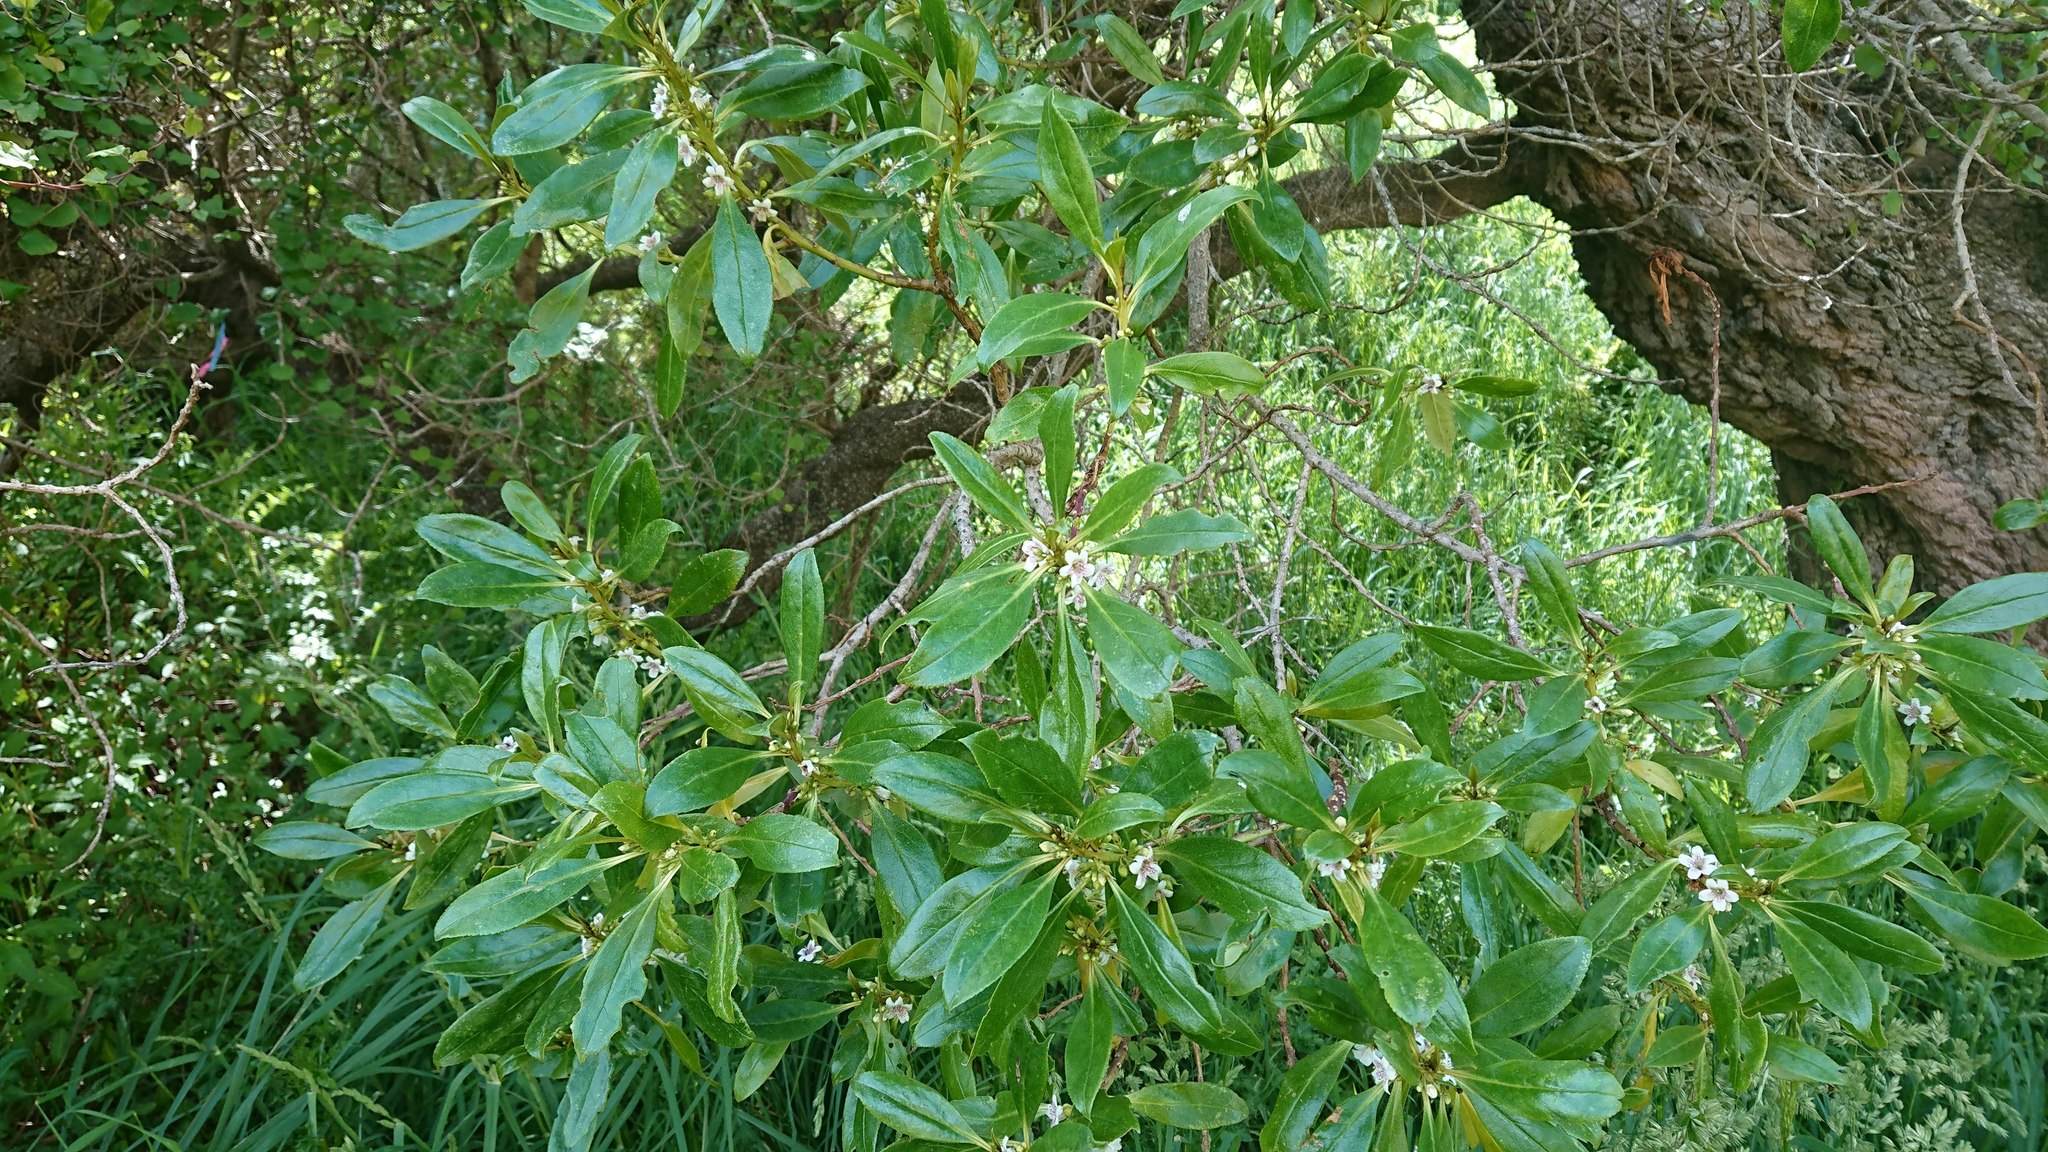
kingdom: Plantae
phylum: Tracheophyta
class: Magnoliopsida
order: Lamiales
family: Scrophulariaceae
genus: Myoporum
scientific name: Myoporum laetum
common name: Ngaio tree
